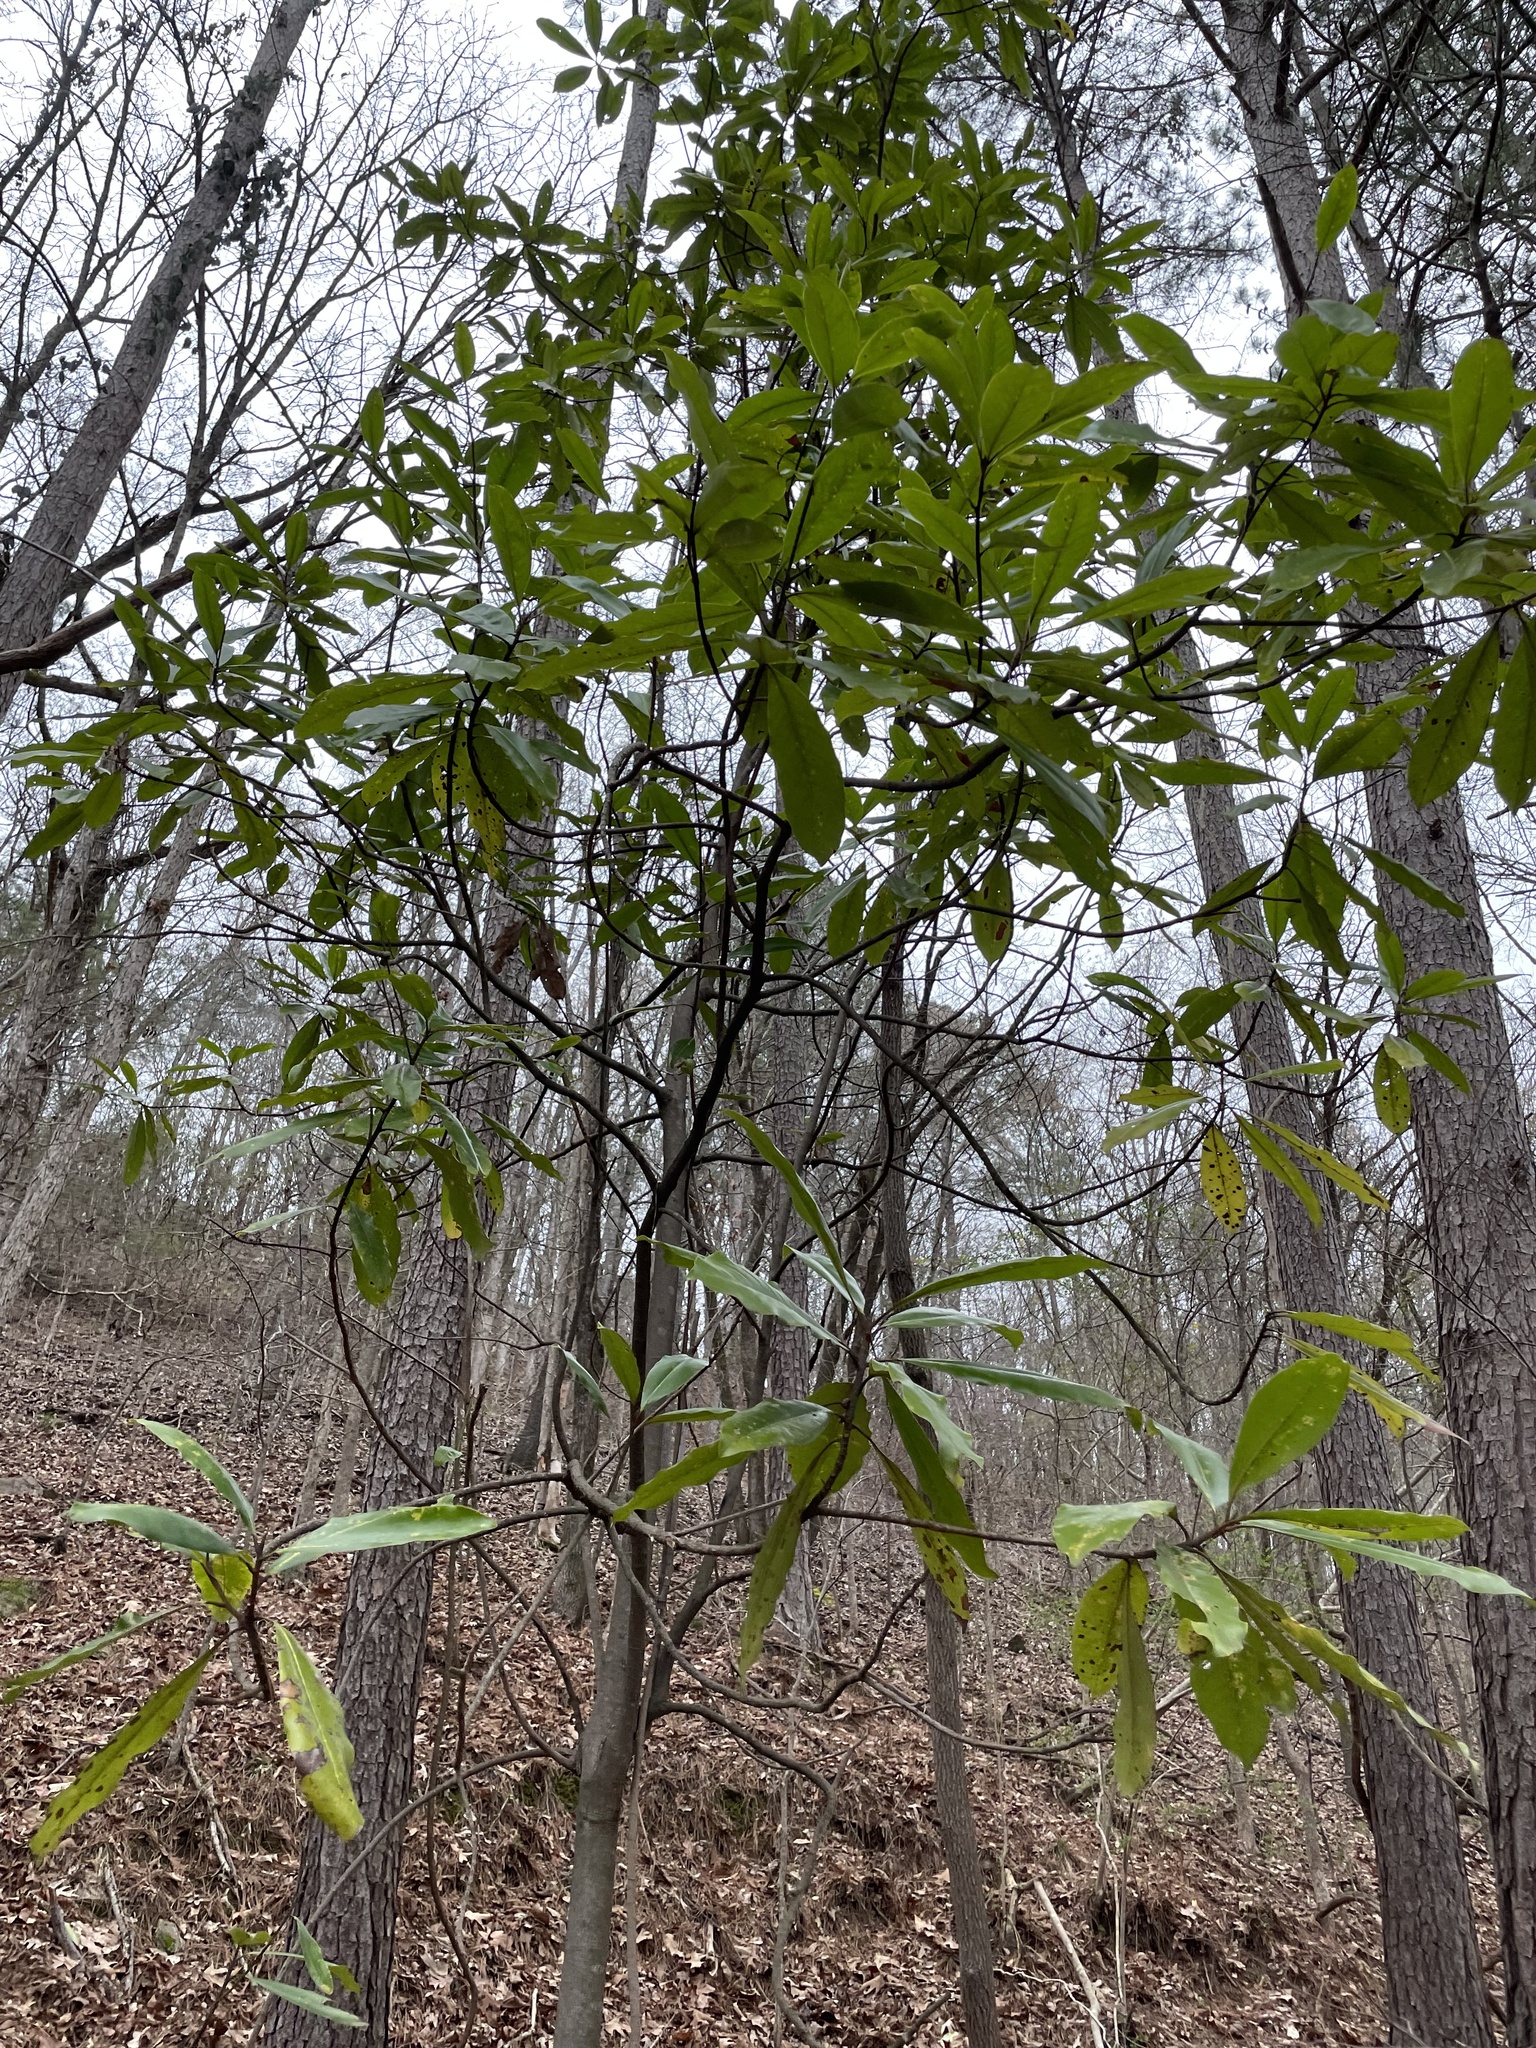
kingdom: Plantae
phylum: Tracheophyta
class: Magnoliopsida
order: Magnoliales
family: Magnoliaceae
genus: Magnolia
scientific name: Magnolia grandiflora
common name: Southern magnolia
